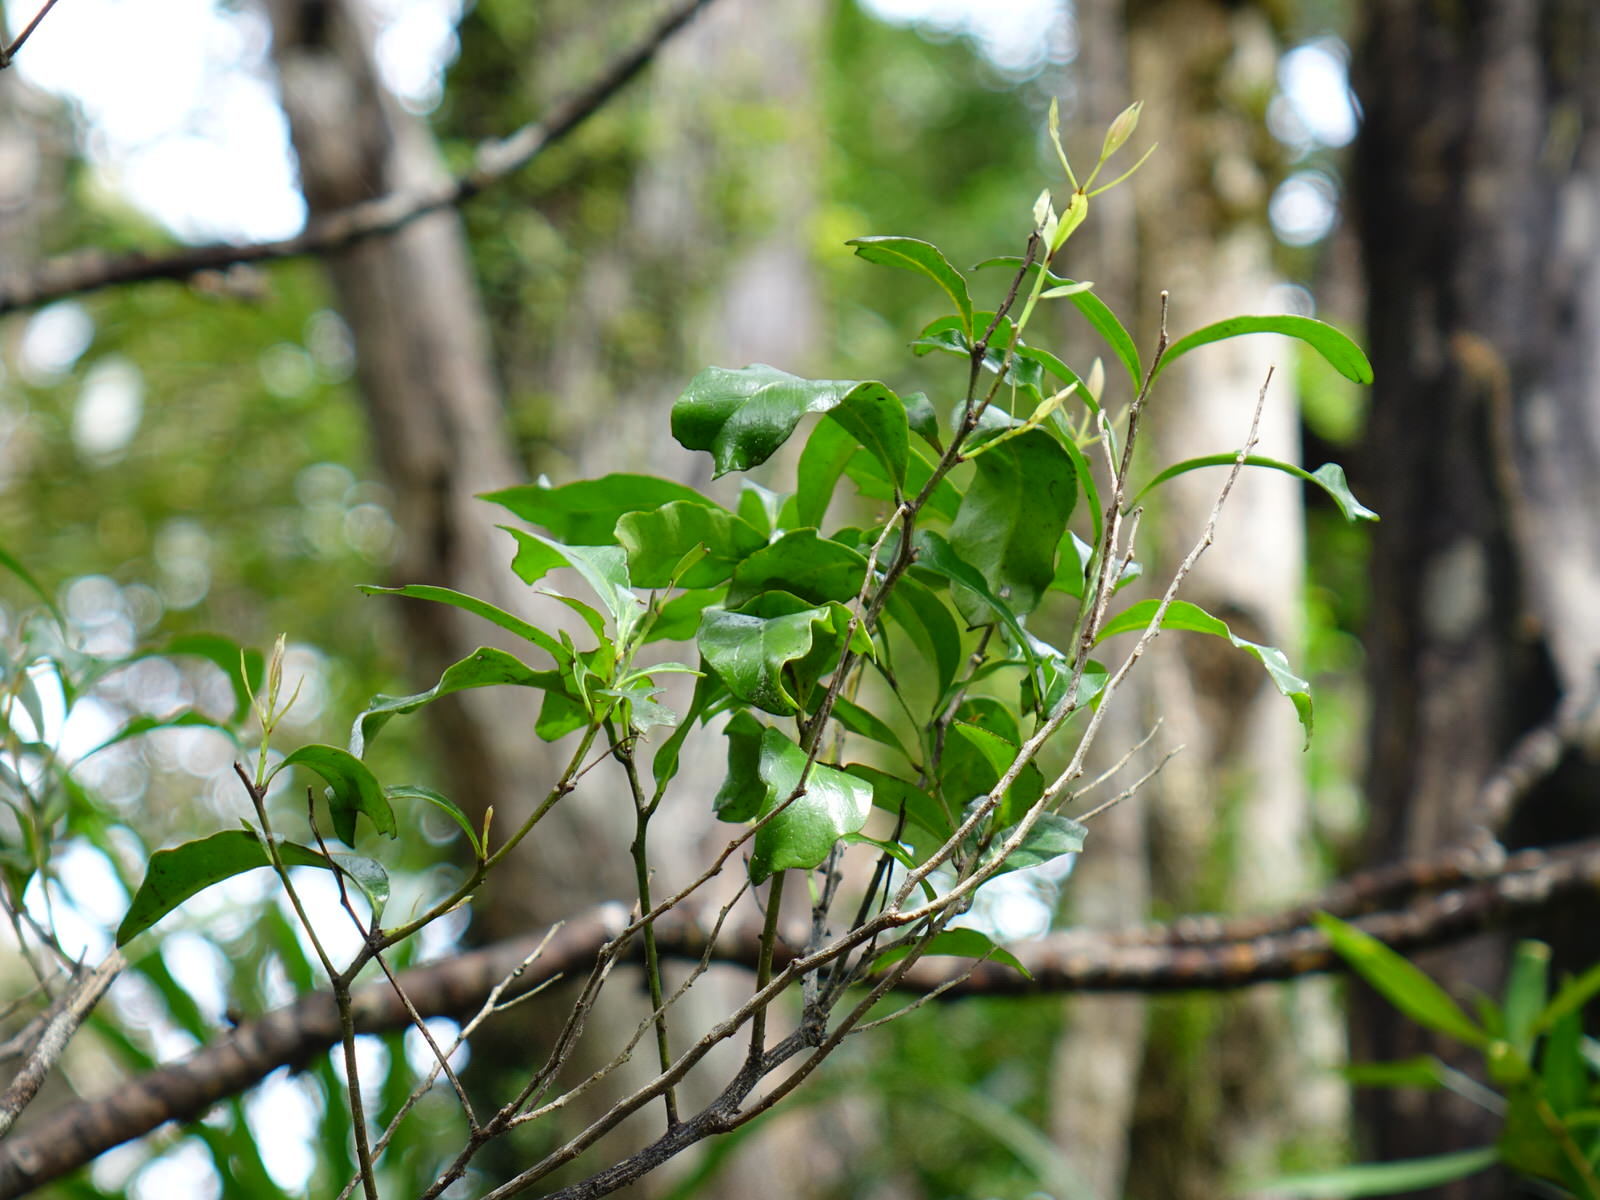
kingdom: Plantae
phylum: Tracheophyta
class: Magnoliopsida
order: Santalales
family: Nanodeaceae
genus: Mida
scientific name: Mida salicifolia
